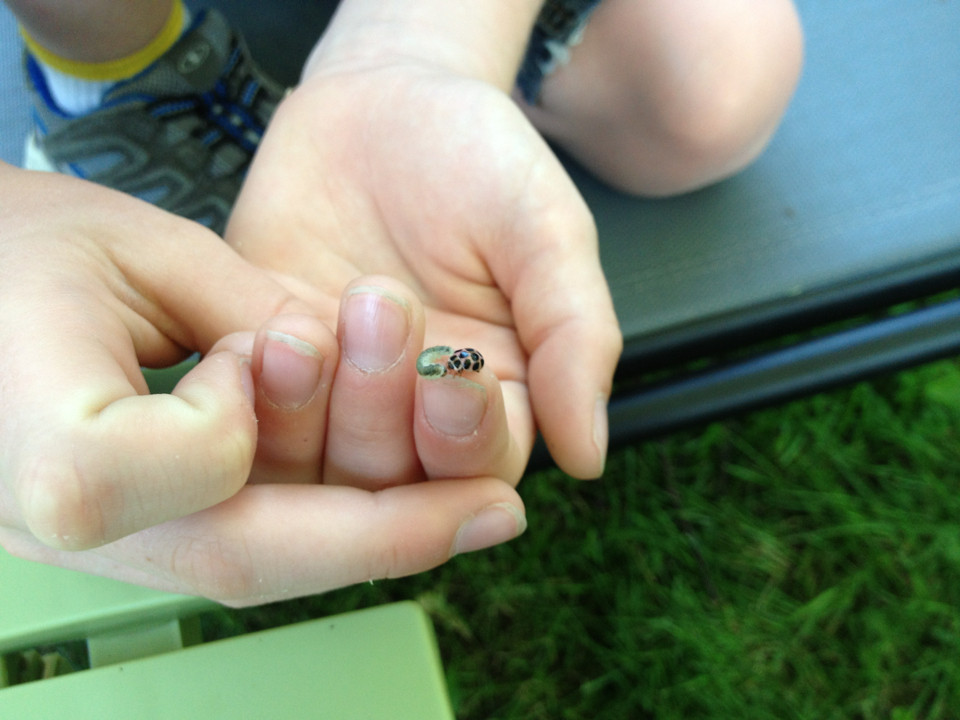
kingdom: Animalia
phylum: Arthropoda
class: Insecta
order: Coleoptera
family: Coccinellidae
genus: Calvia
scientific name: Calvia quatuordecimguttata
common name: Cream-spot ladybird
